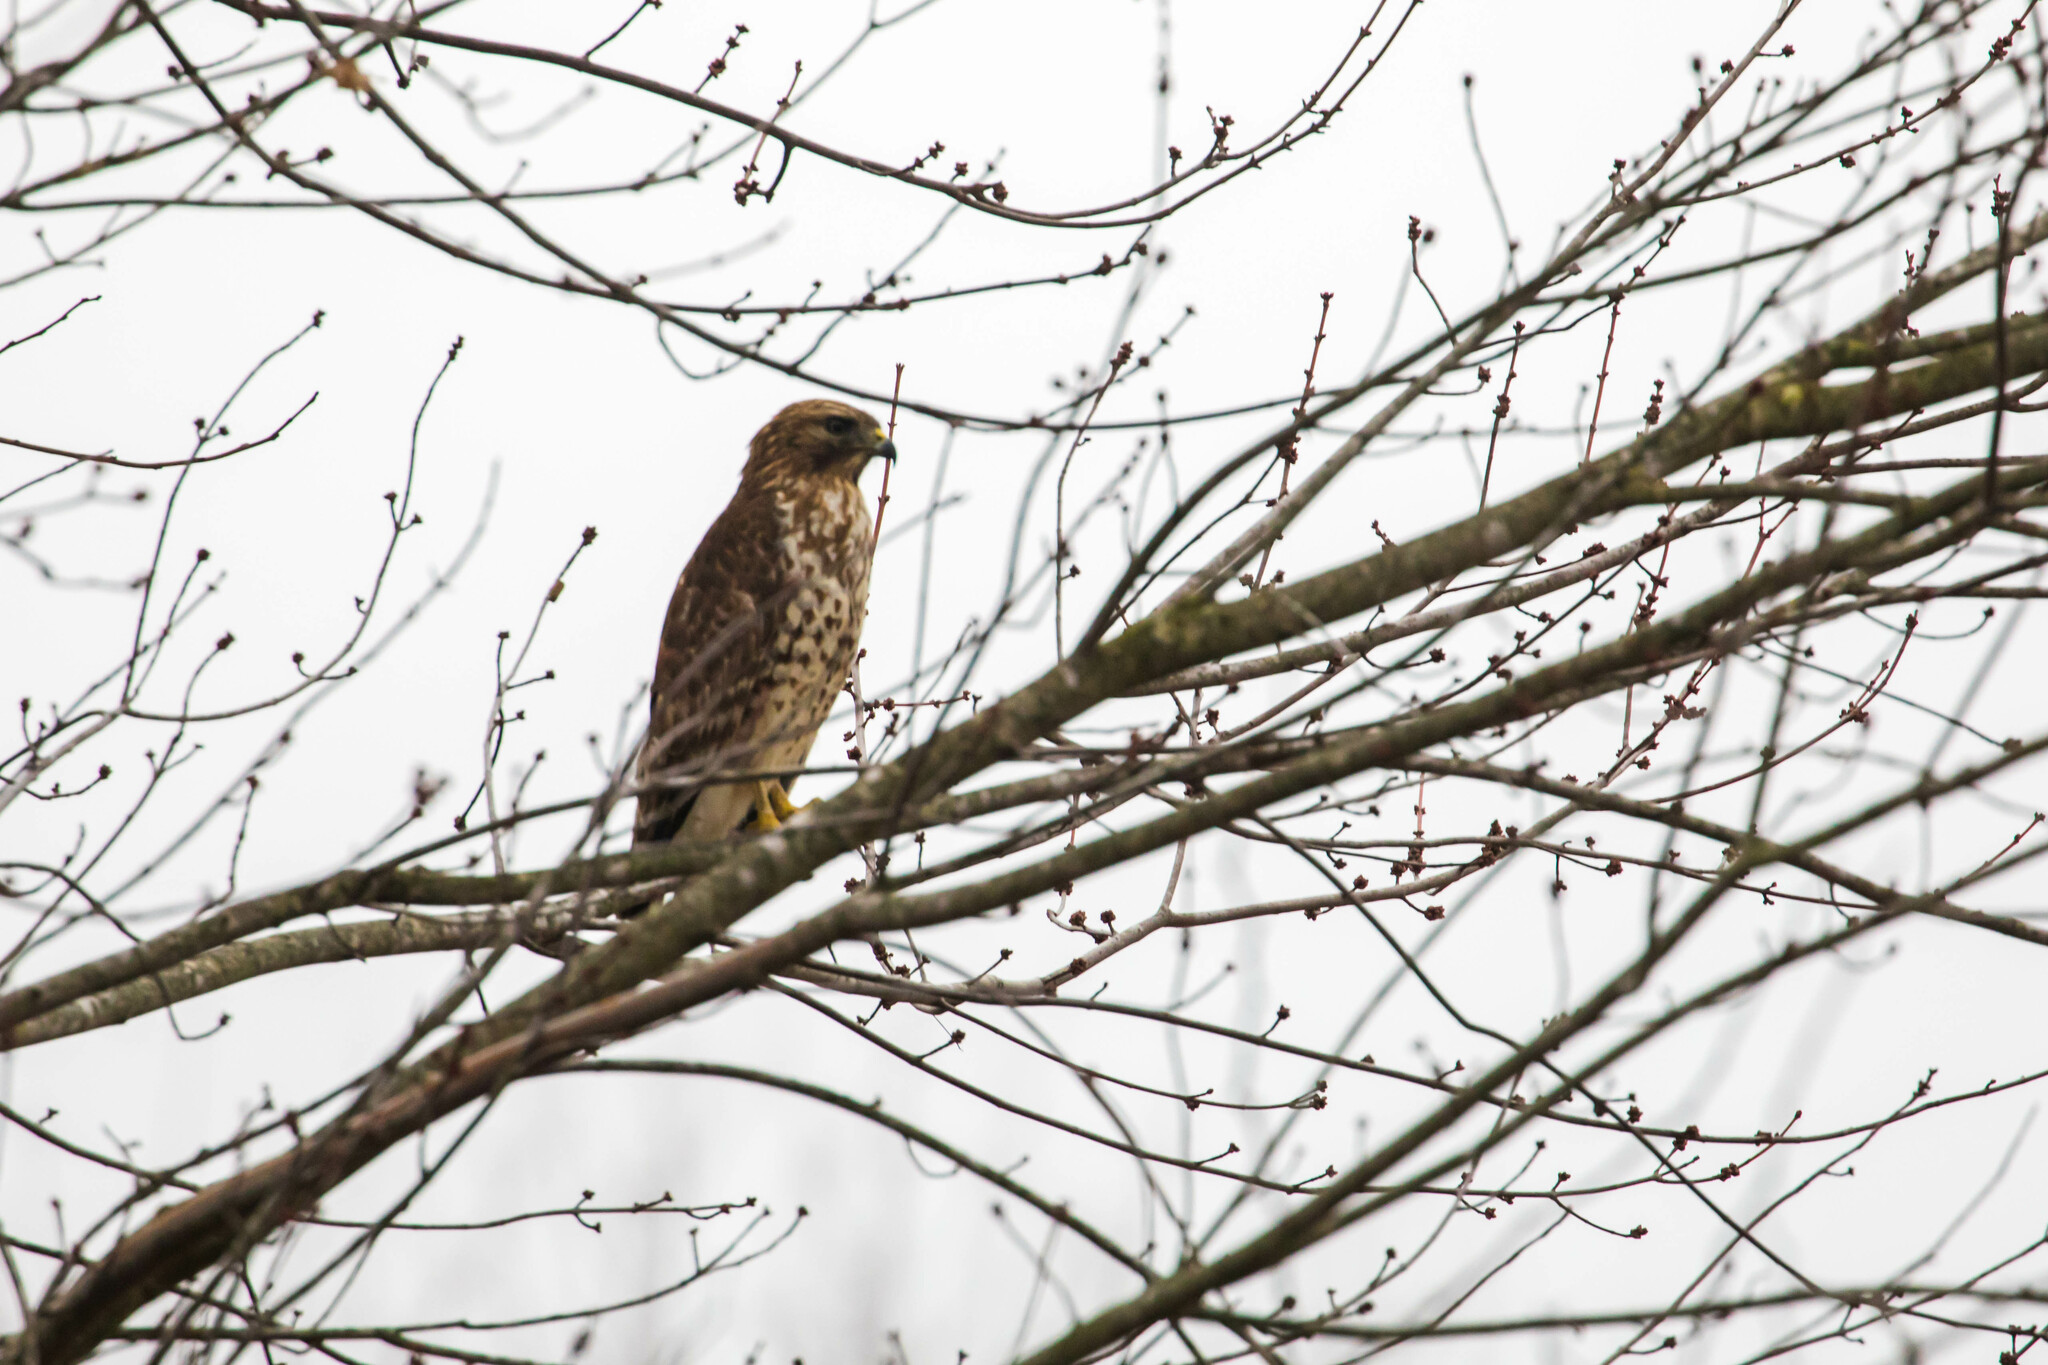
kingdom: Animalia
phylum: Chordata
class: Aves
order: Accipitriformes
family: Accipitridae
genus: Buteo
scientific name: Buteo lineatus
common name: Red-shouldered hawk
